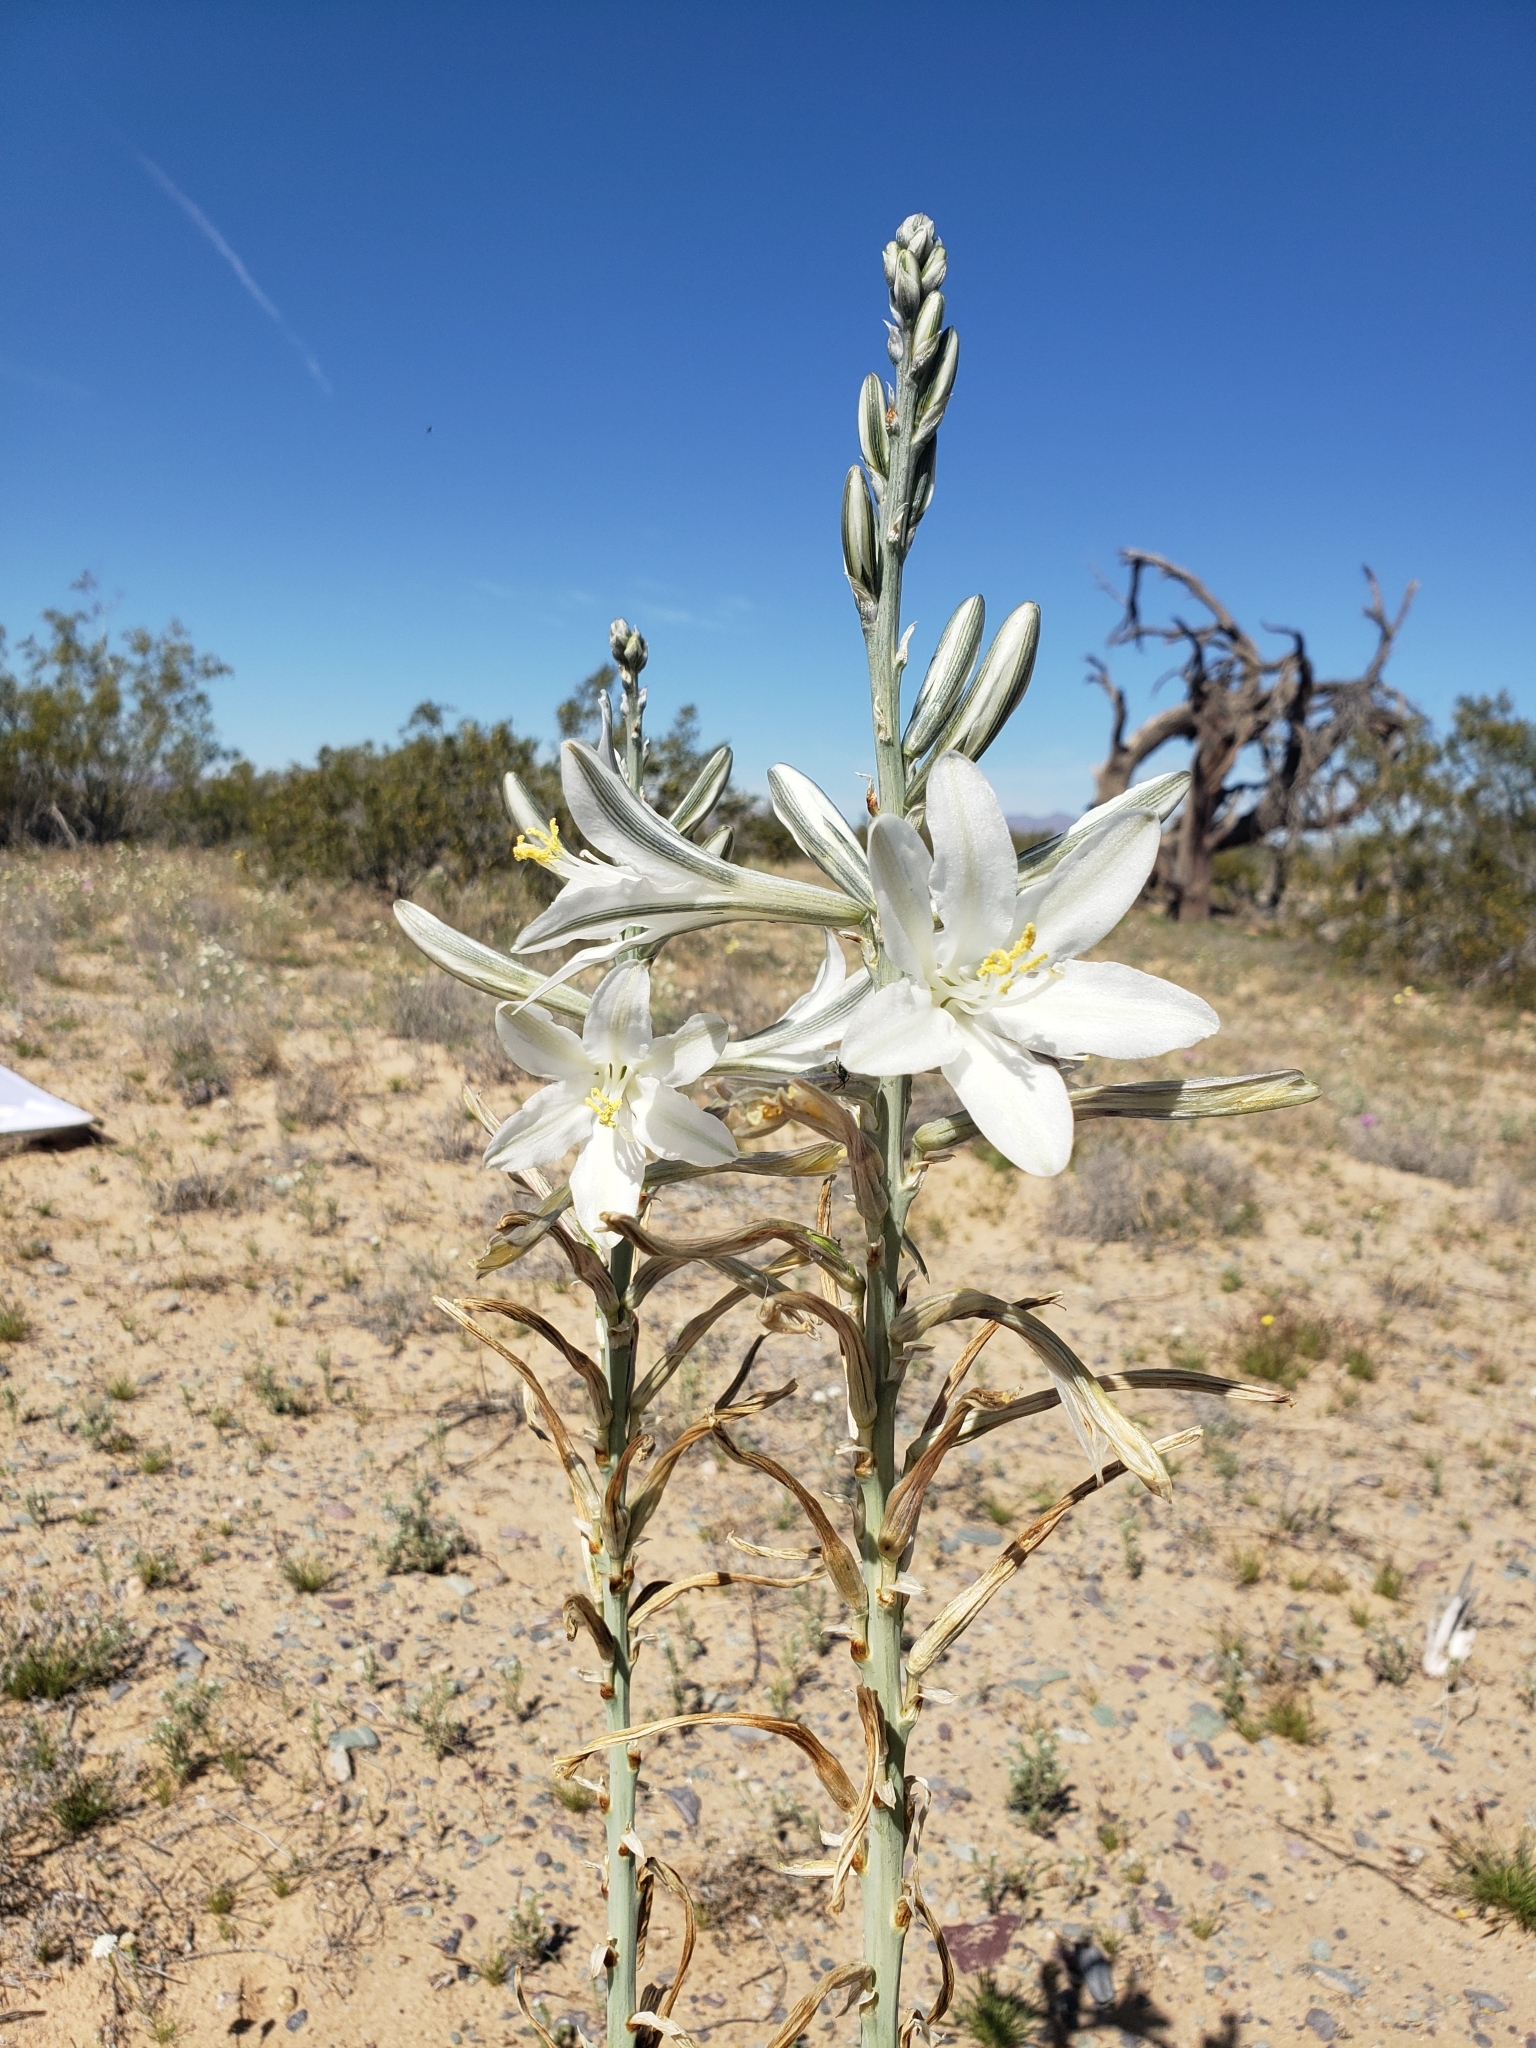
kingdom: Plantae
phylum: Tracheophyta
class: Liliopsida
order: Asparagales
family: Asparagaceae
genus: Hesperocallis
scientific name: Hesperocallis undulata
